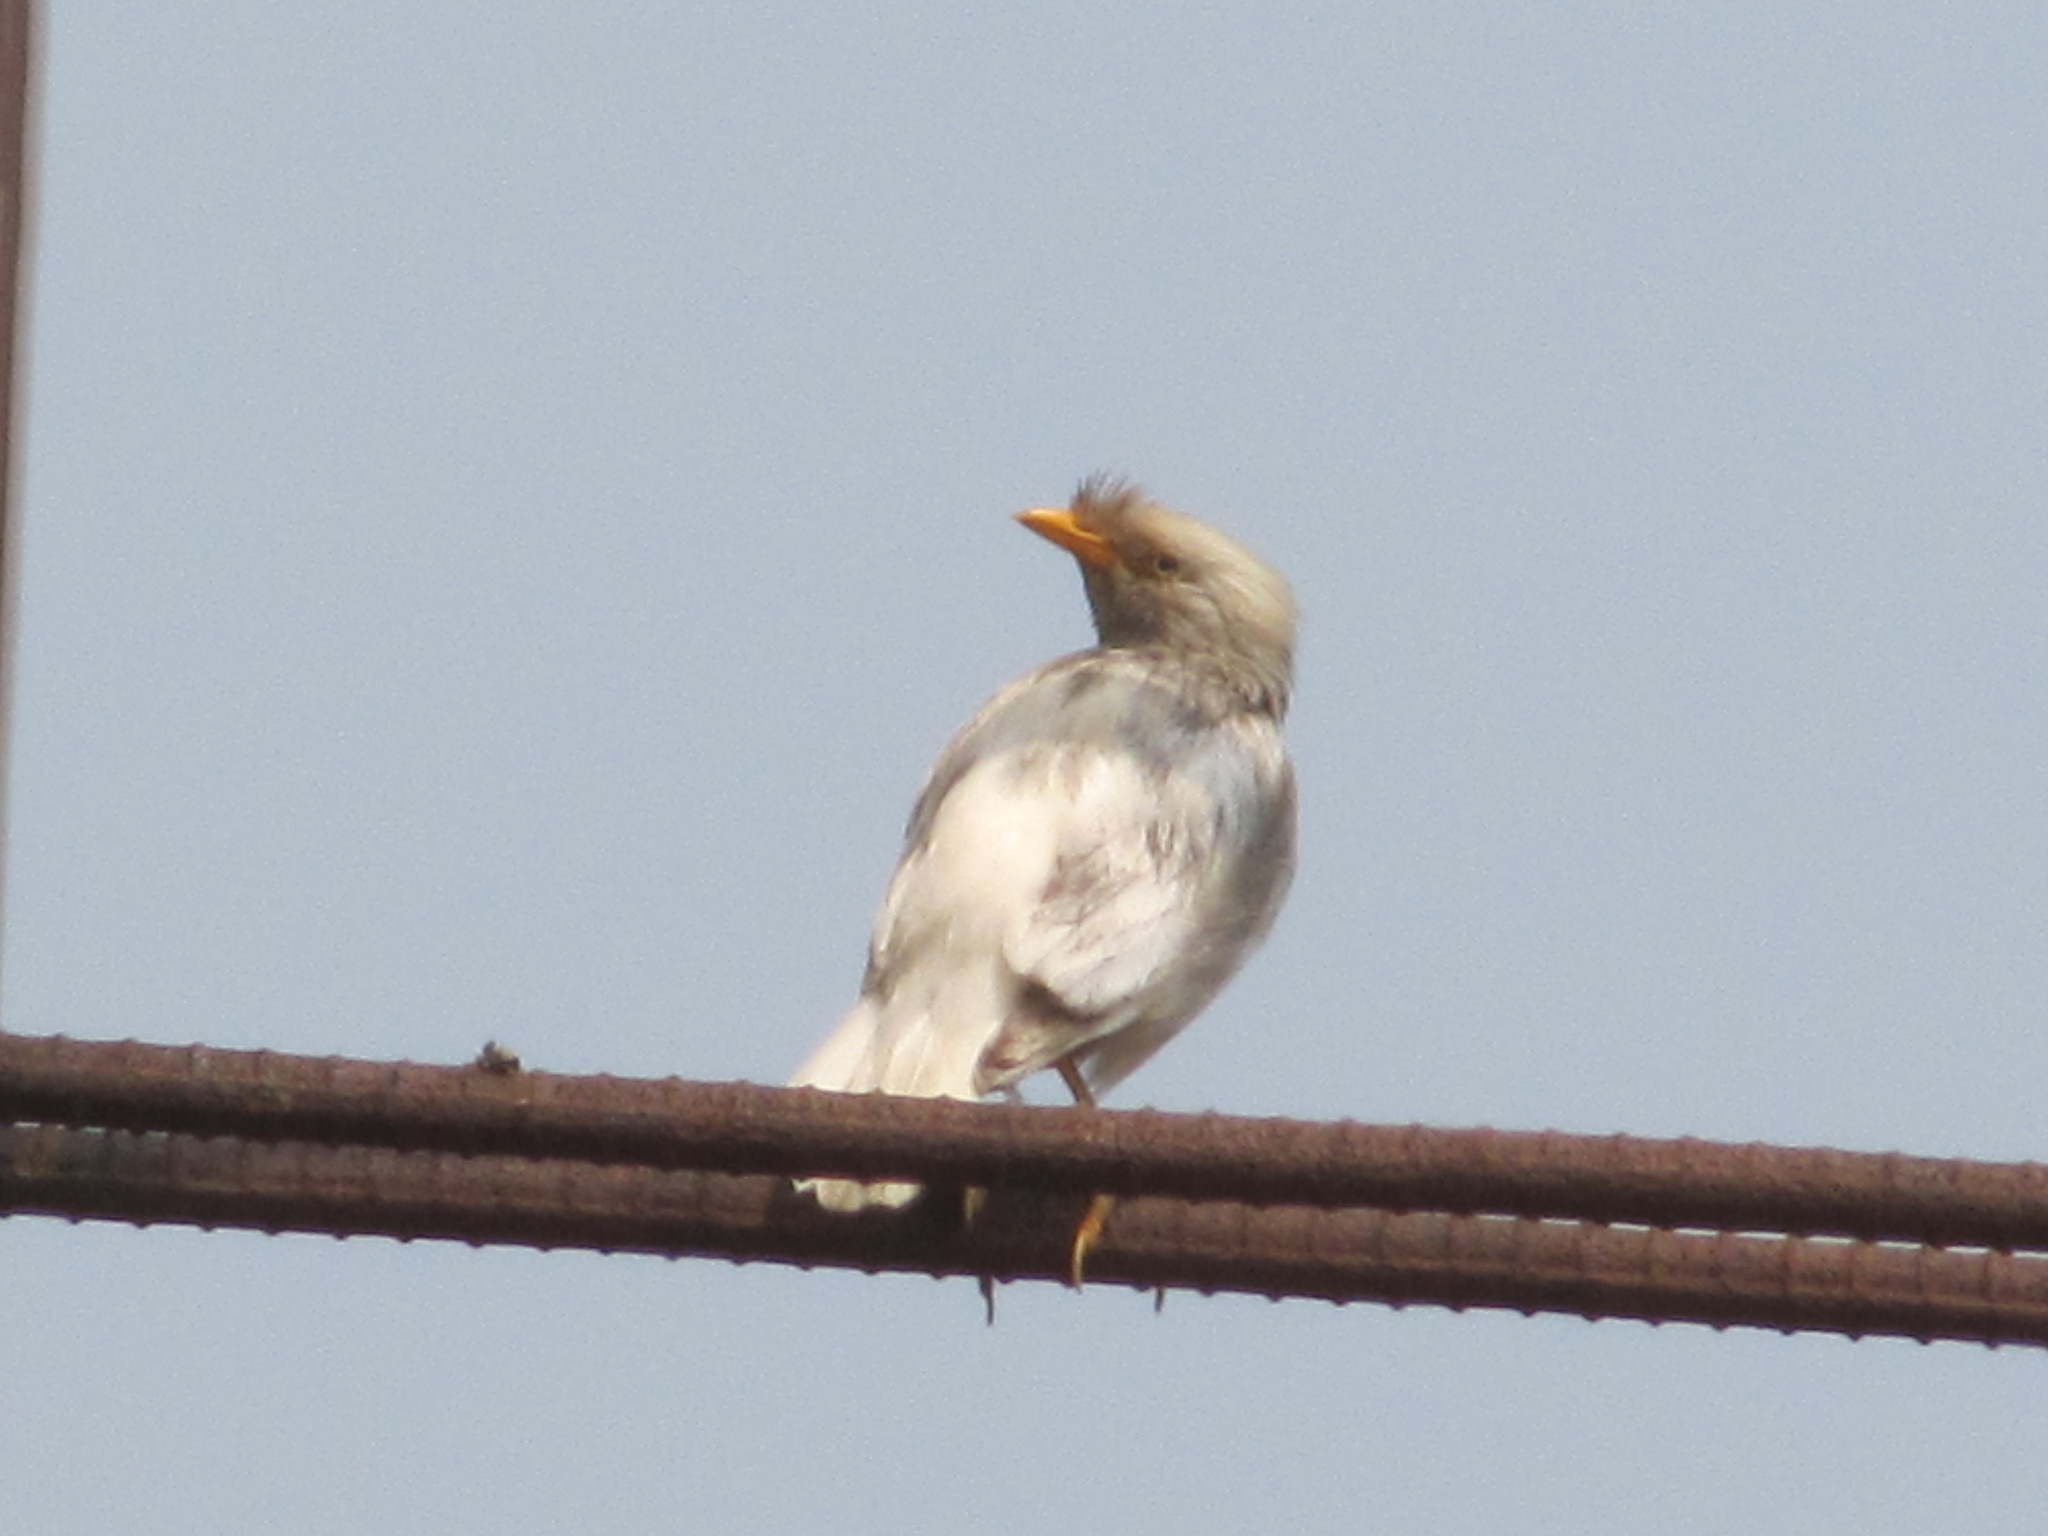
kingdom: Animalia
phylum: Chordata
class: Aves
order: Passeriformes
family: Sturnidae
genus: Acridotheres
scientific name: Acridotheres javanicus
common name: Javan myna
